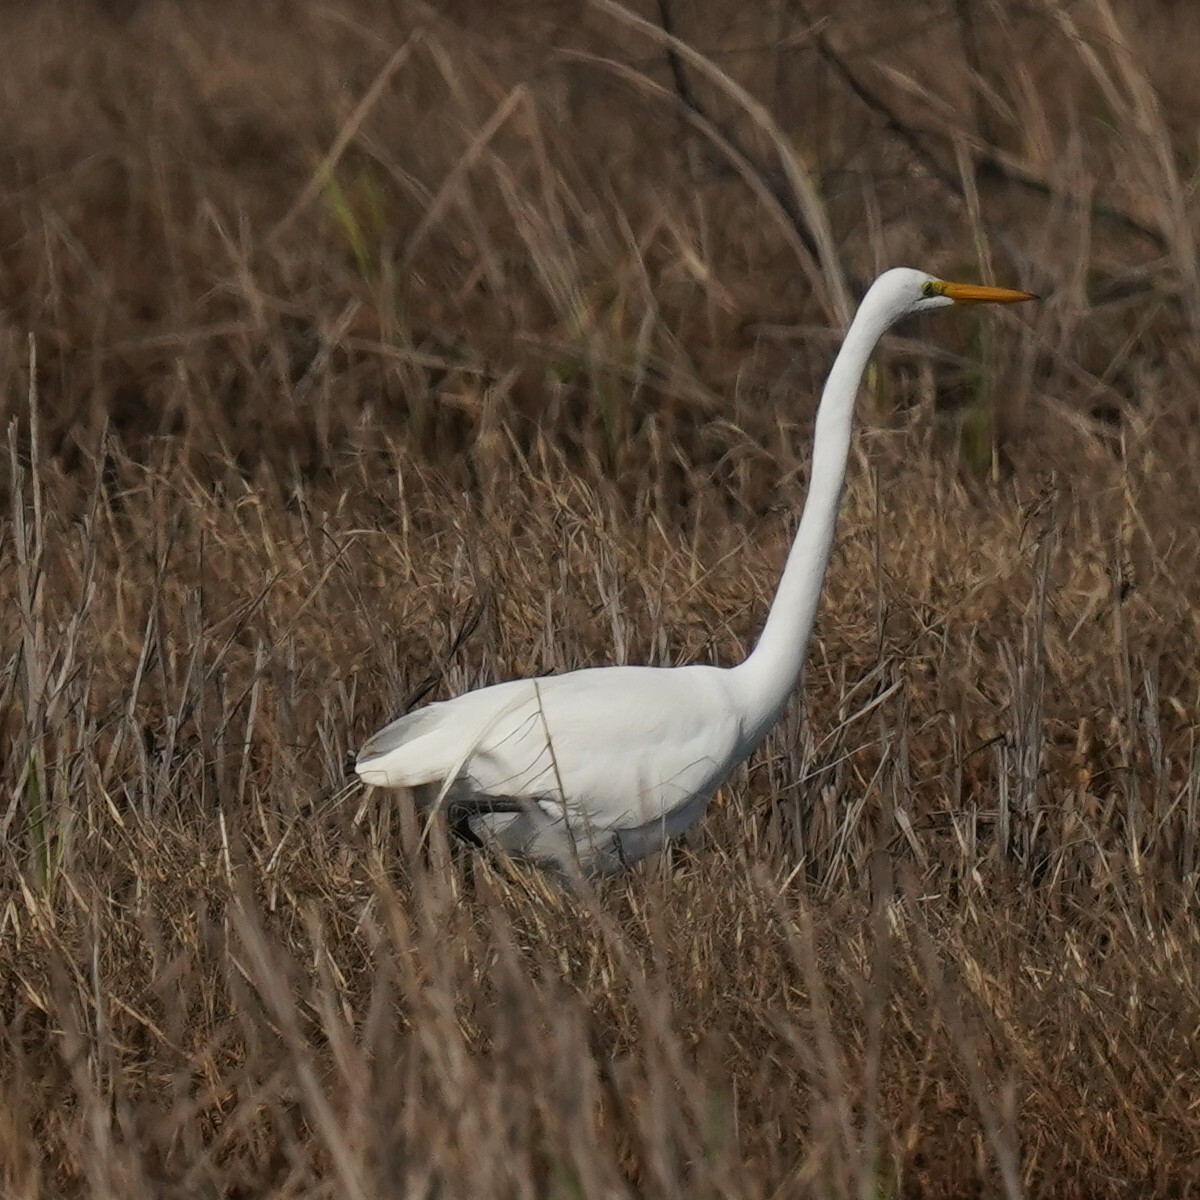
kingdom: Animalia
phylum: Chordata
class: Aves
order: Pelecaniformes
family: Ardeidae
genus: Ardea
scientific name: Ardea alba
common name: Great egret
